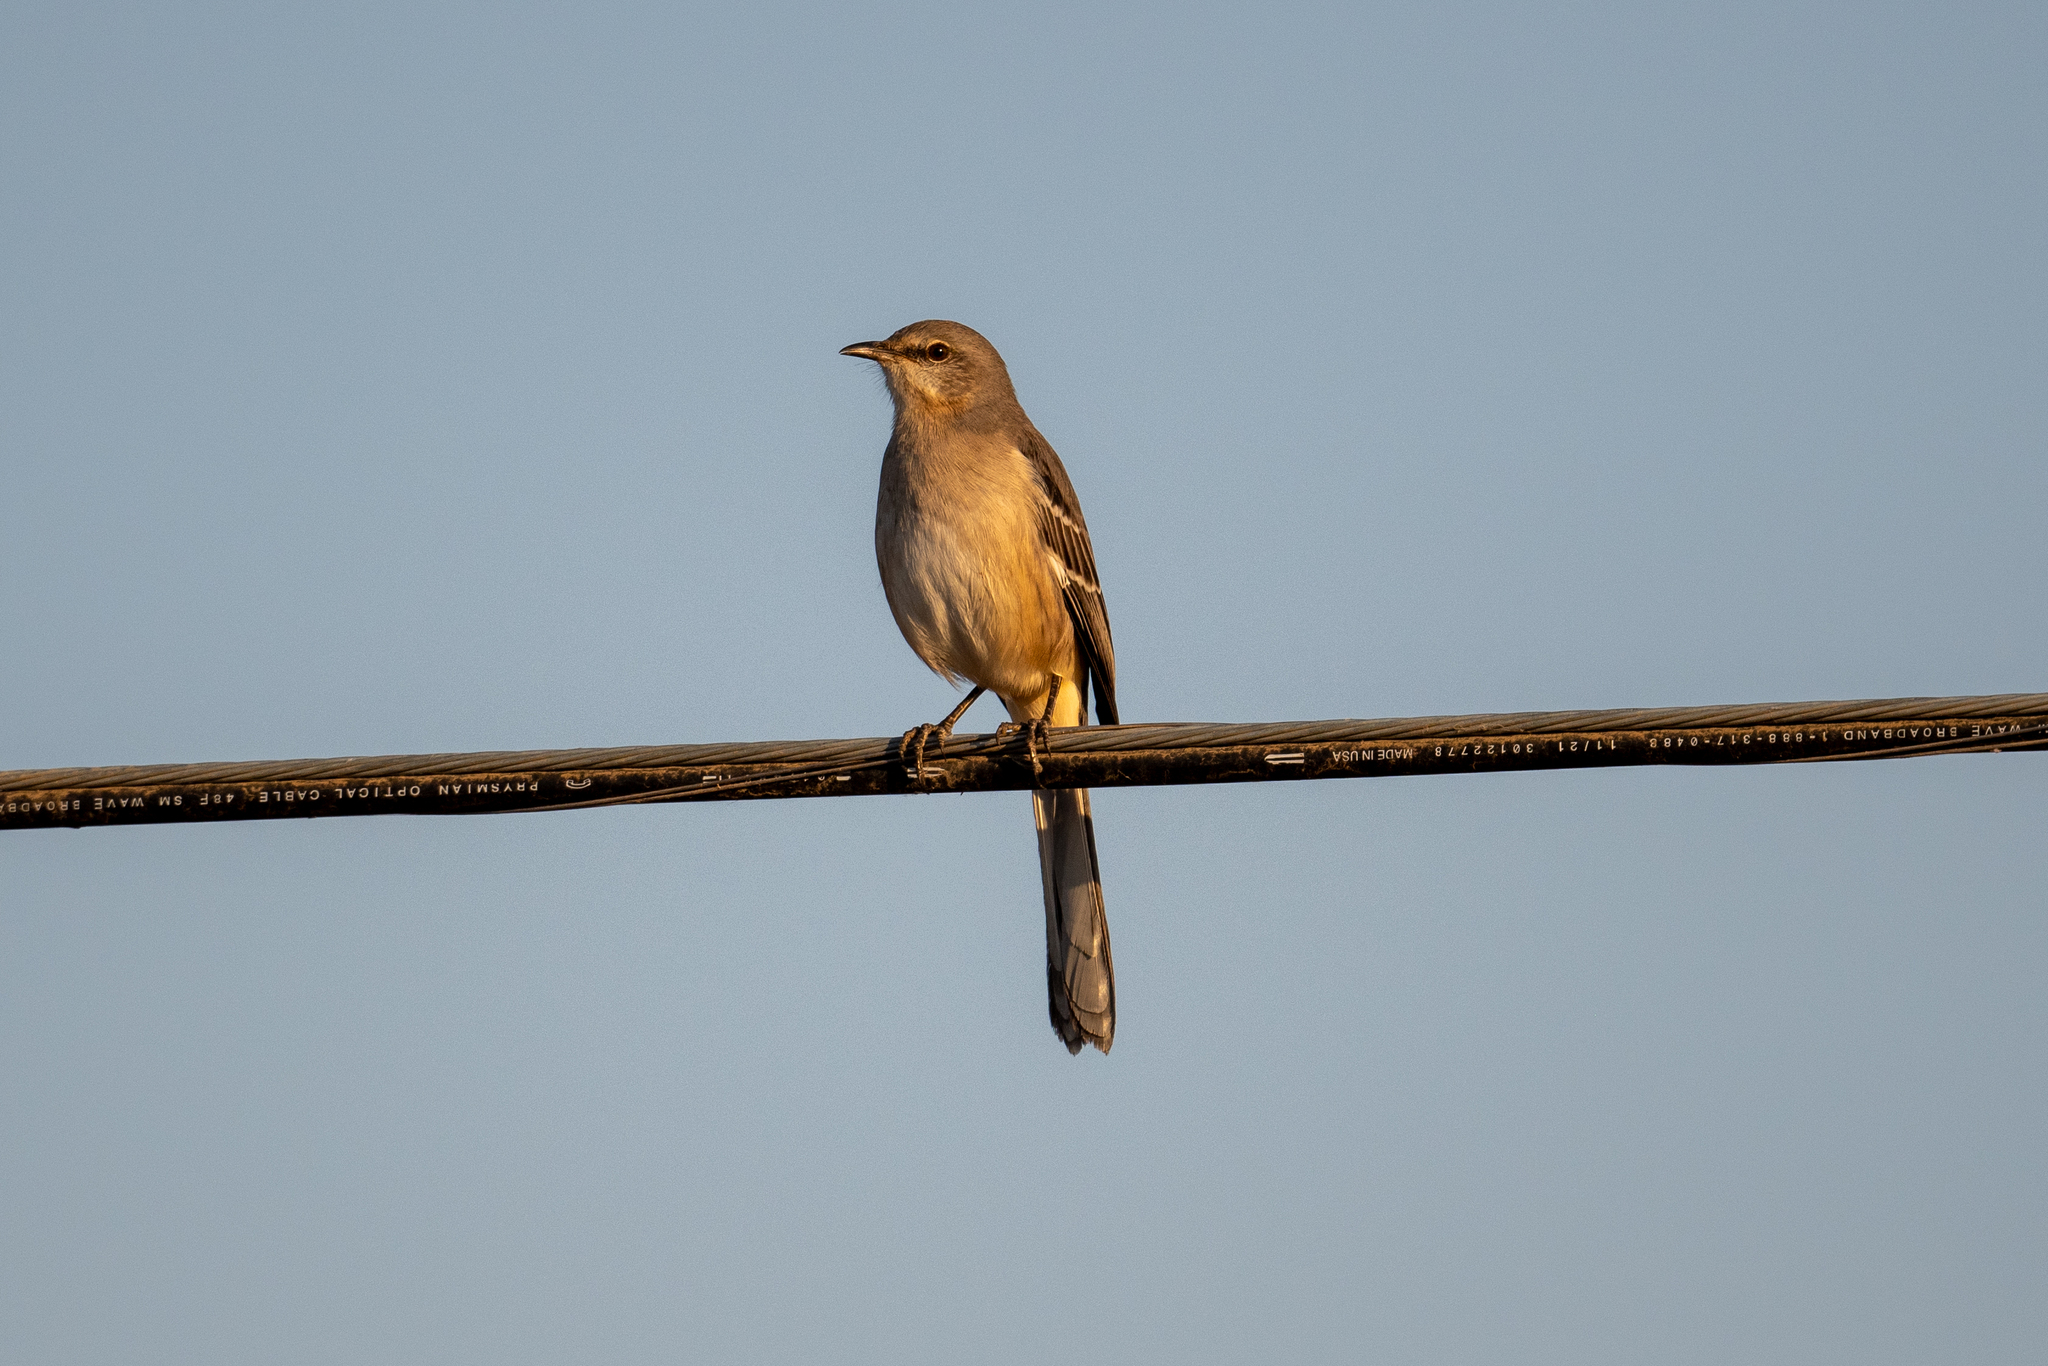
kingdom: Animalia
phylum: Chordata
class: Aves
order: Passeriformes
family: Mimidae
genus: Mimus
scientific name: Mimus polyglottos
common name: Northern mockingbird
